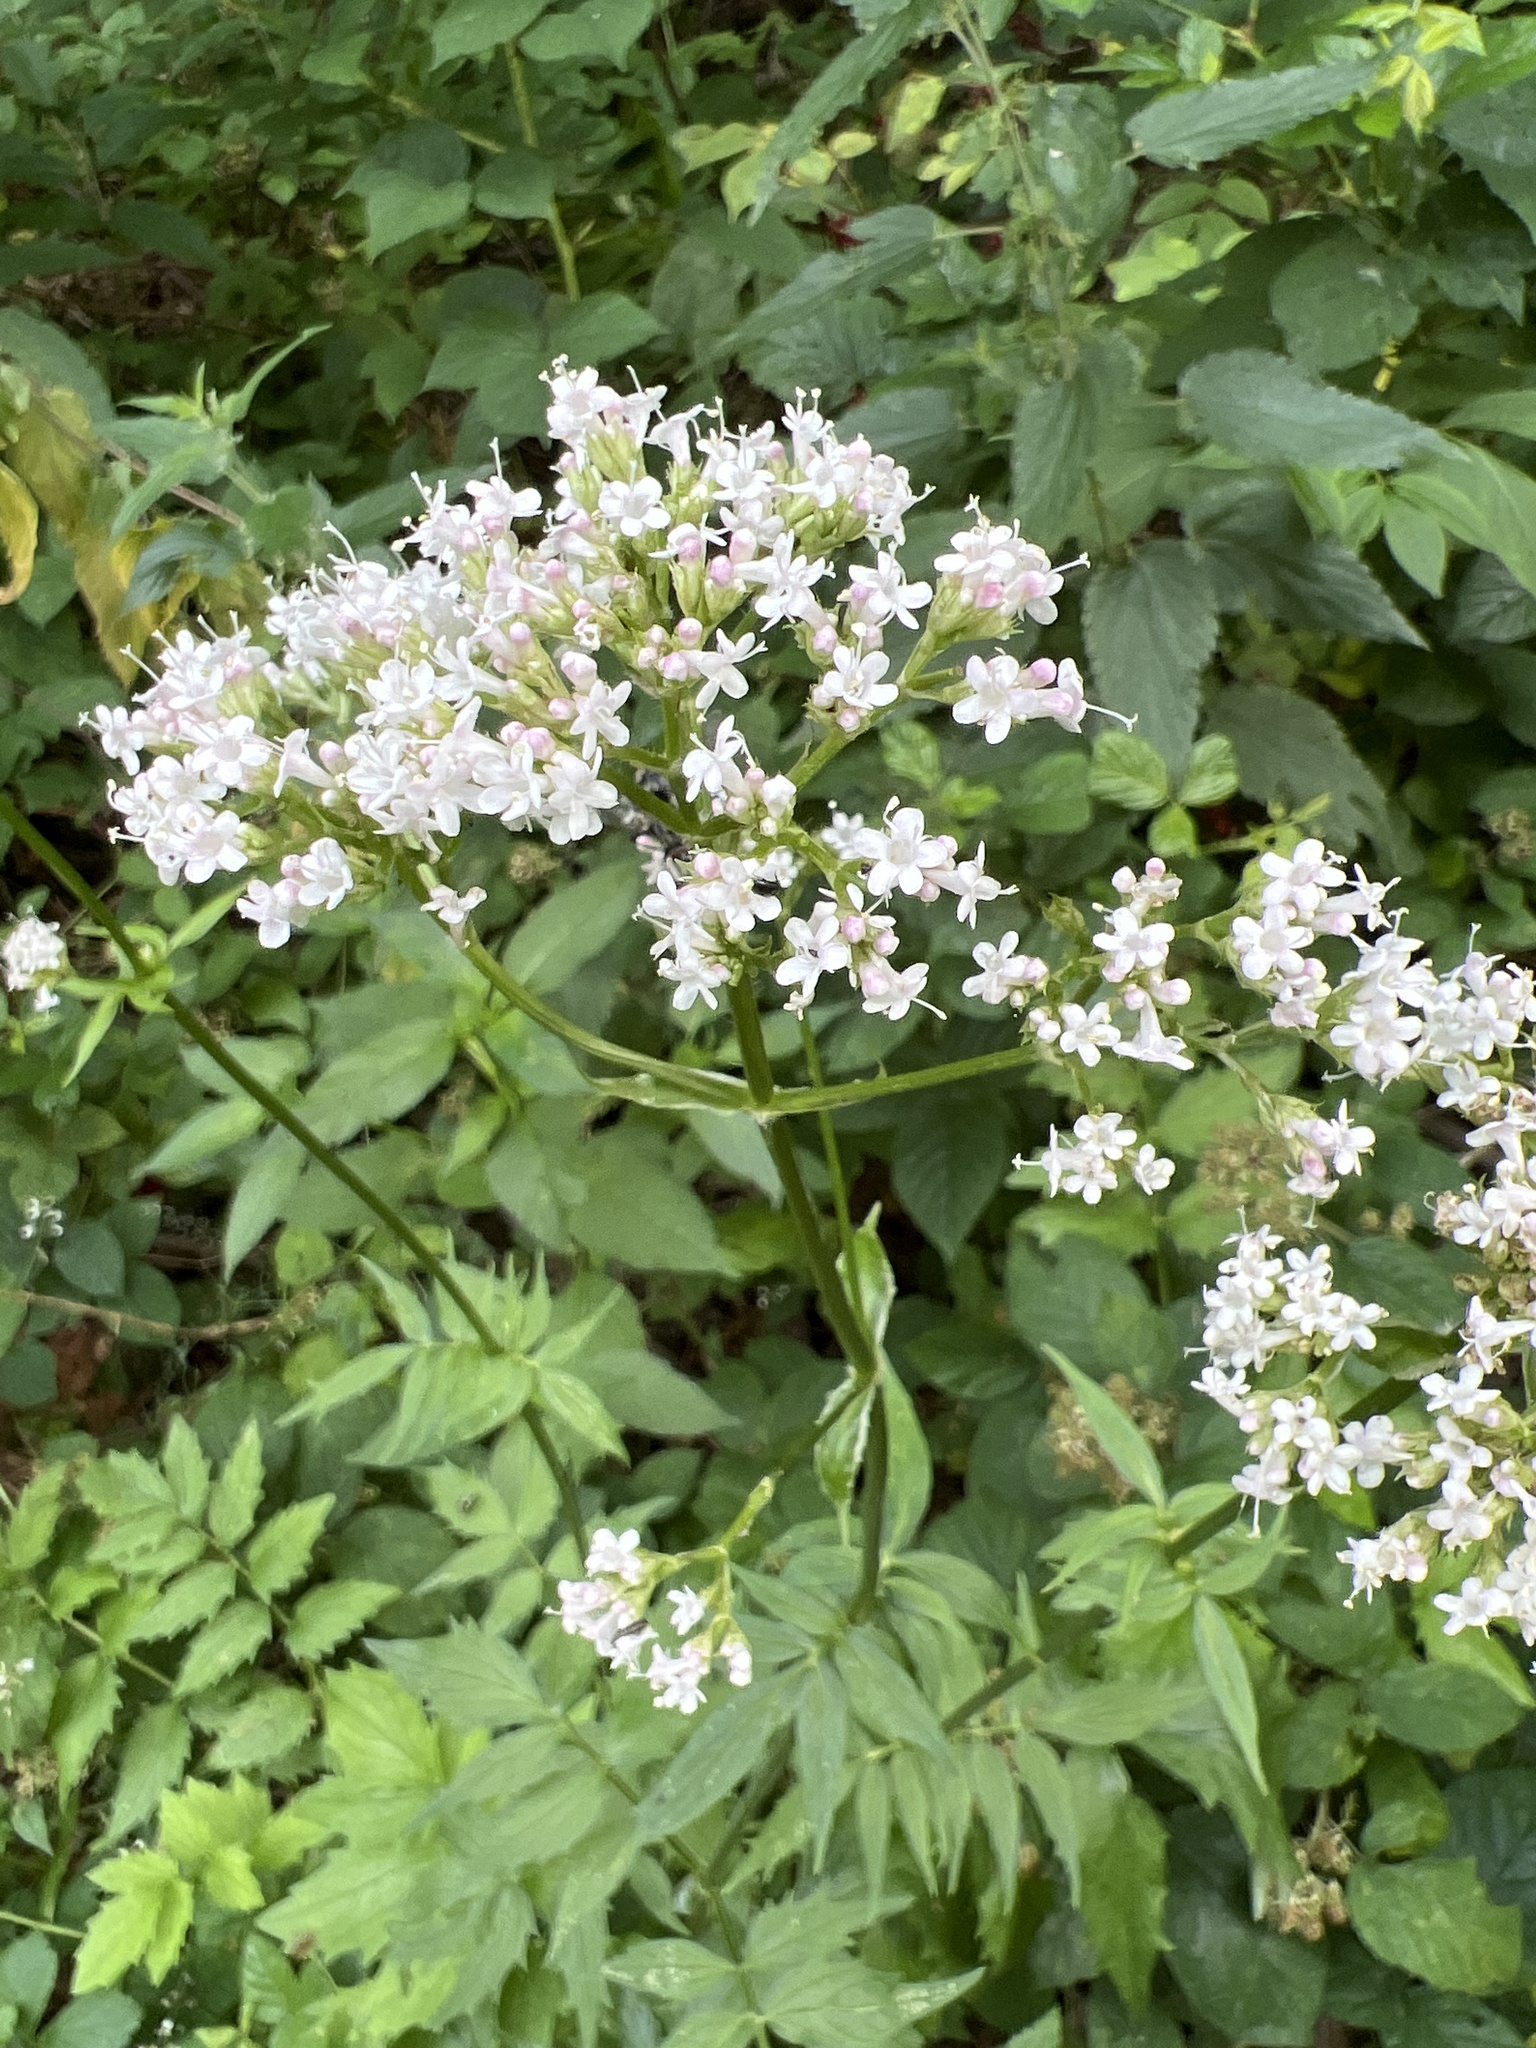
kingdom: Plantae
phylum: Tracheophyta
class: Magnoliopsida
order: Dipsacales
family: Caprifoliaceae
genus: Valeriana
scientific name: Valeriana officinalis
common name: Common valerian
